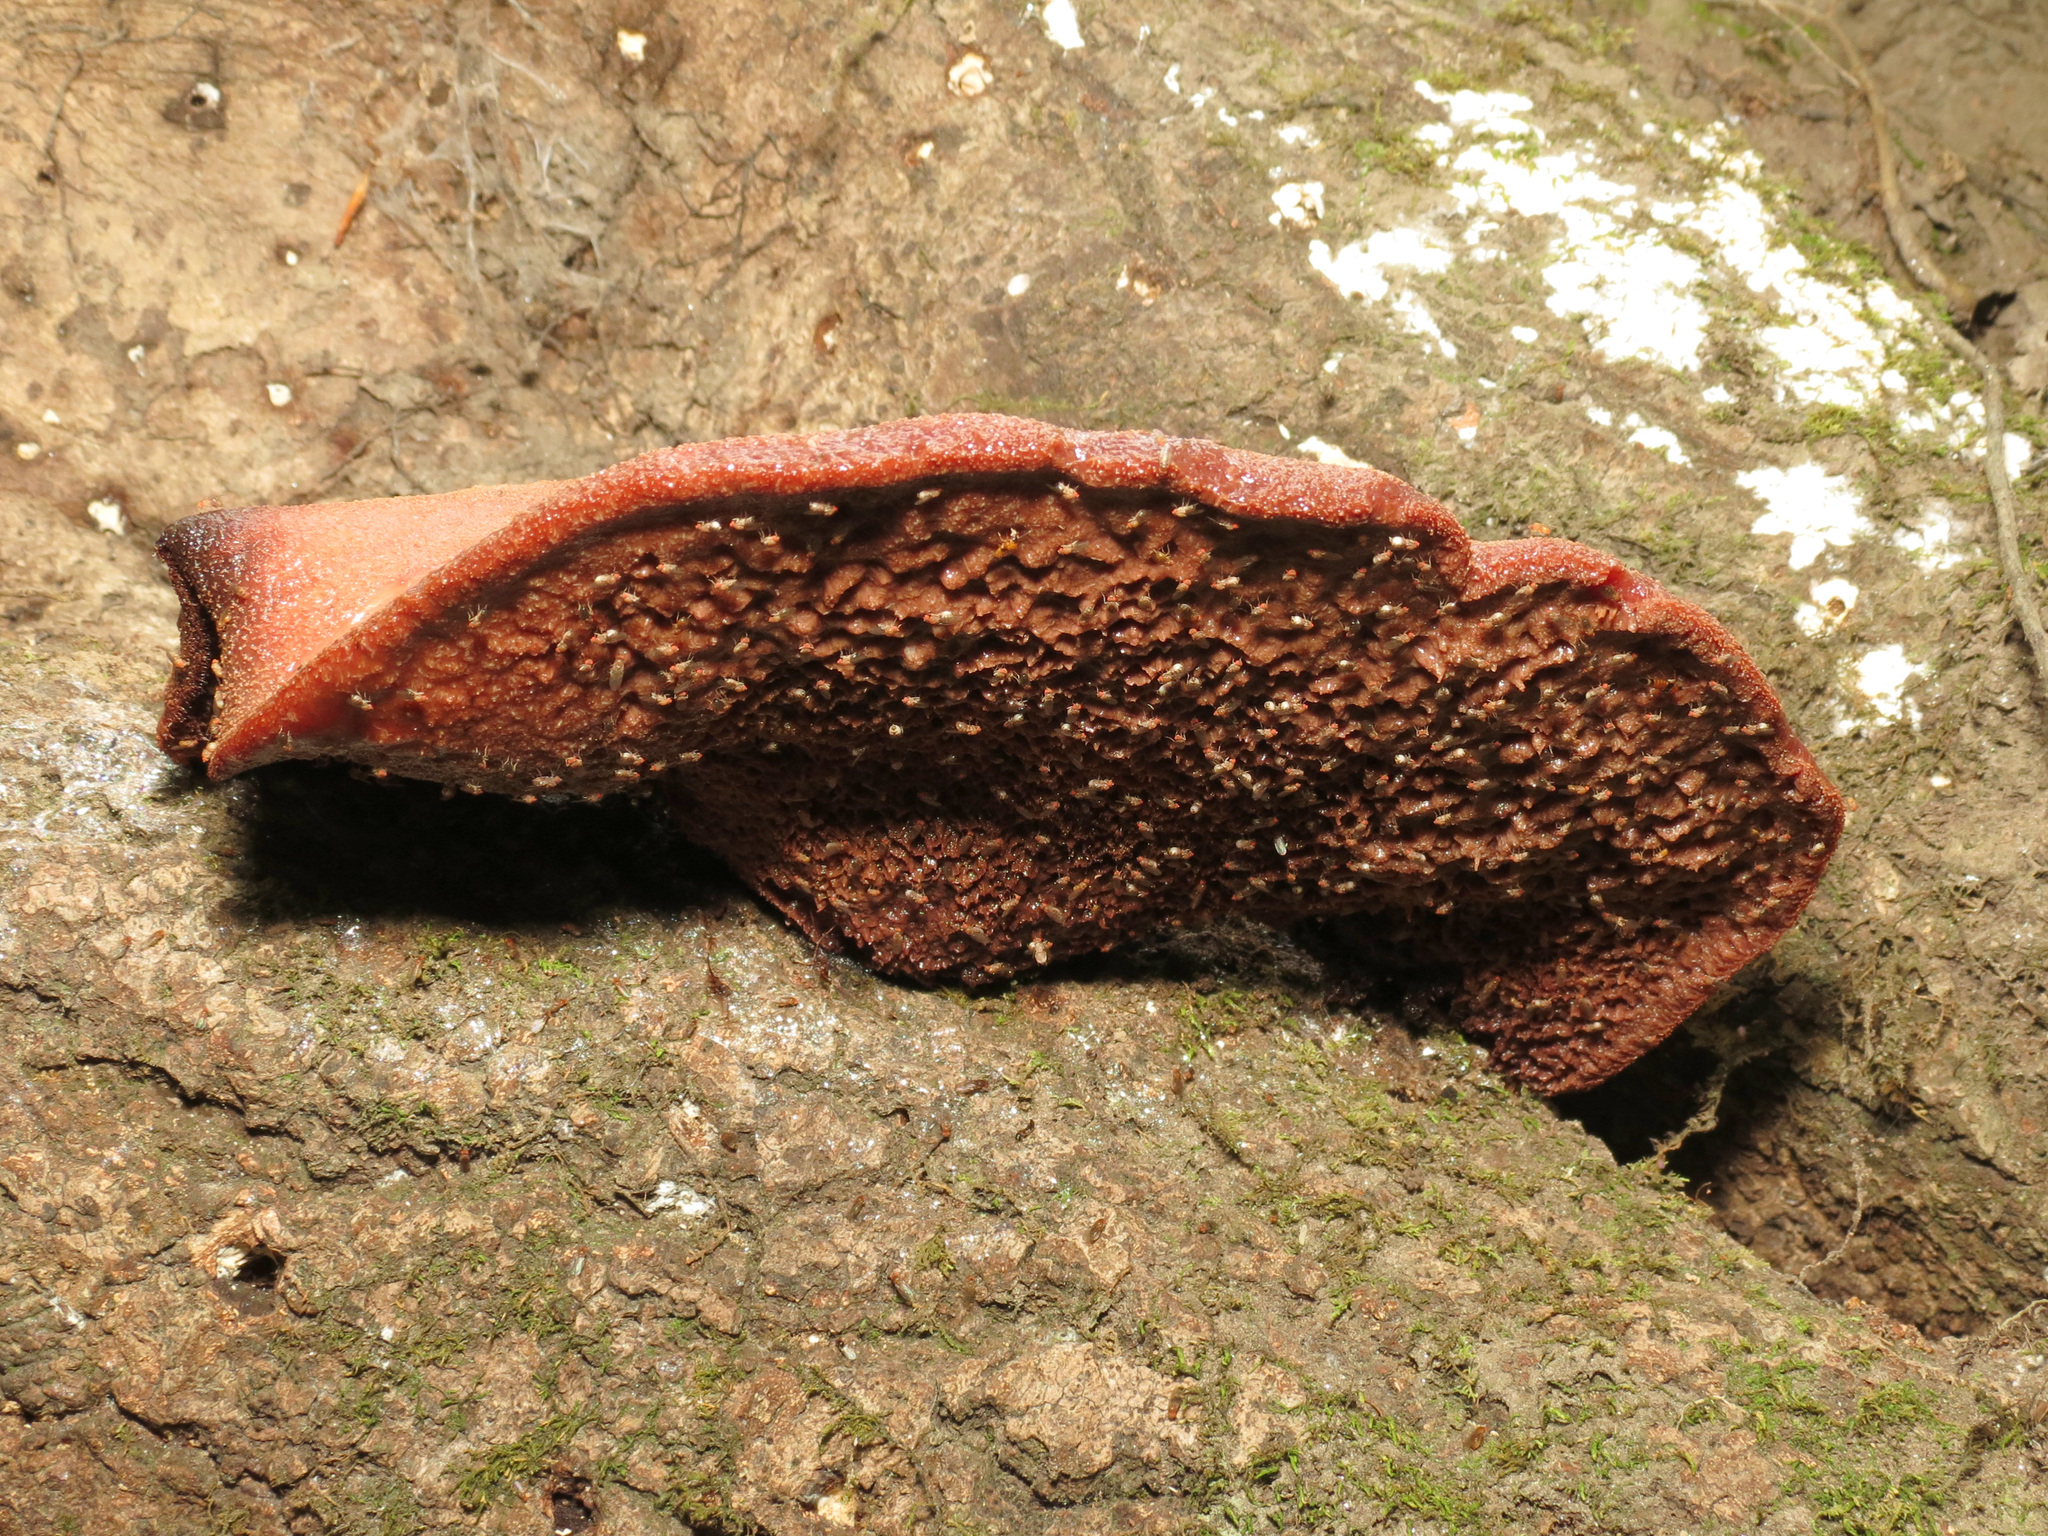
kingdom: Fungi
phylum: Basidiomycota
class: Agaricomycetes
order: Agaricales
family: Fistulinaceae
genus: Fistulina
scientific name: Fistulina hepatica
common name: Beef-steak fungus
